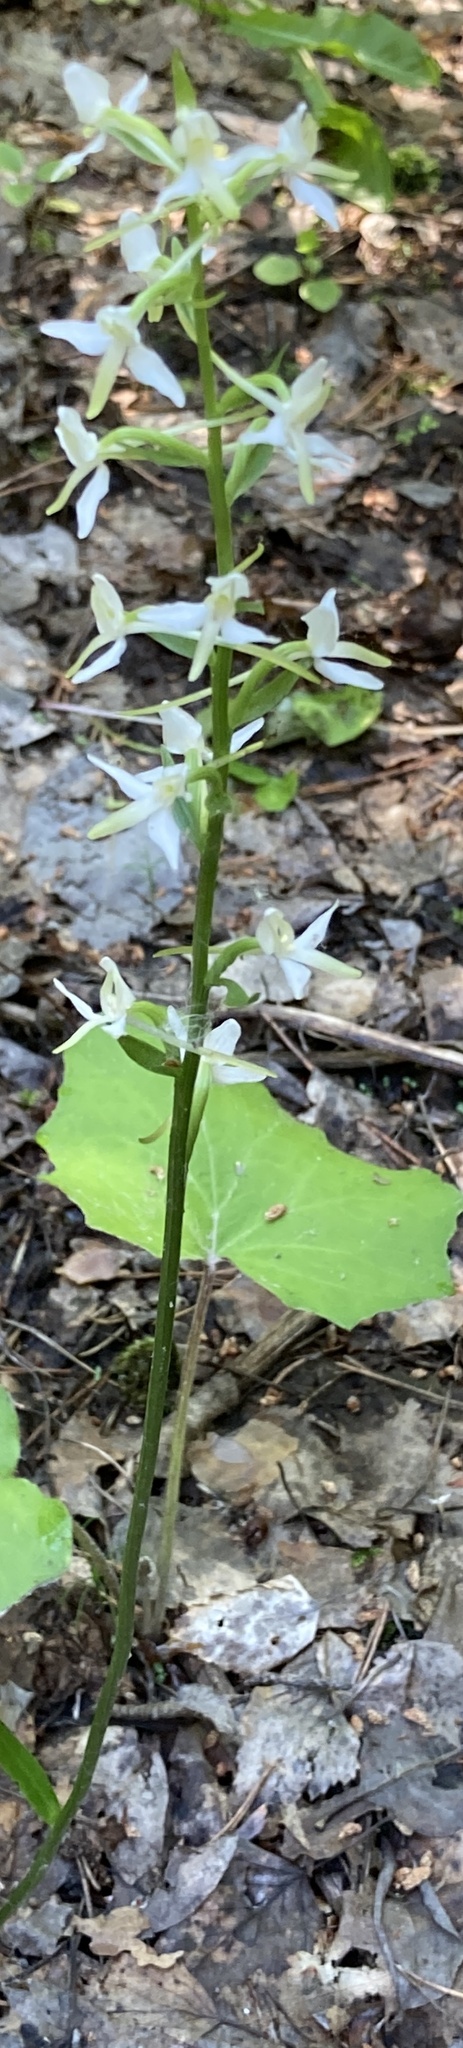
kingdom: Plantae
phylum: Tracheophyta
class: Liliopsida
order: Asparagales
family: Orchidaceae
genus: Platanthera
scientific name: Platanthera bifolia
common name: Lesser butterfly-orchid
